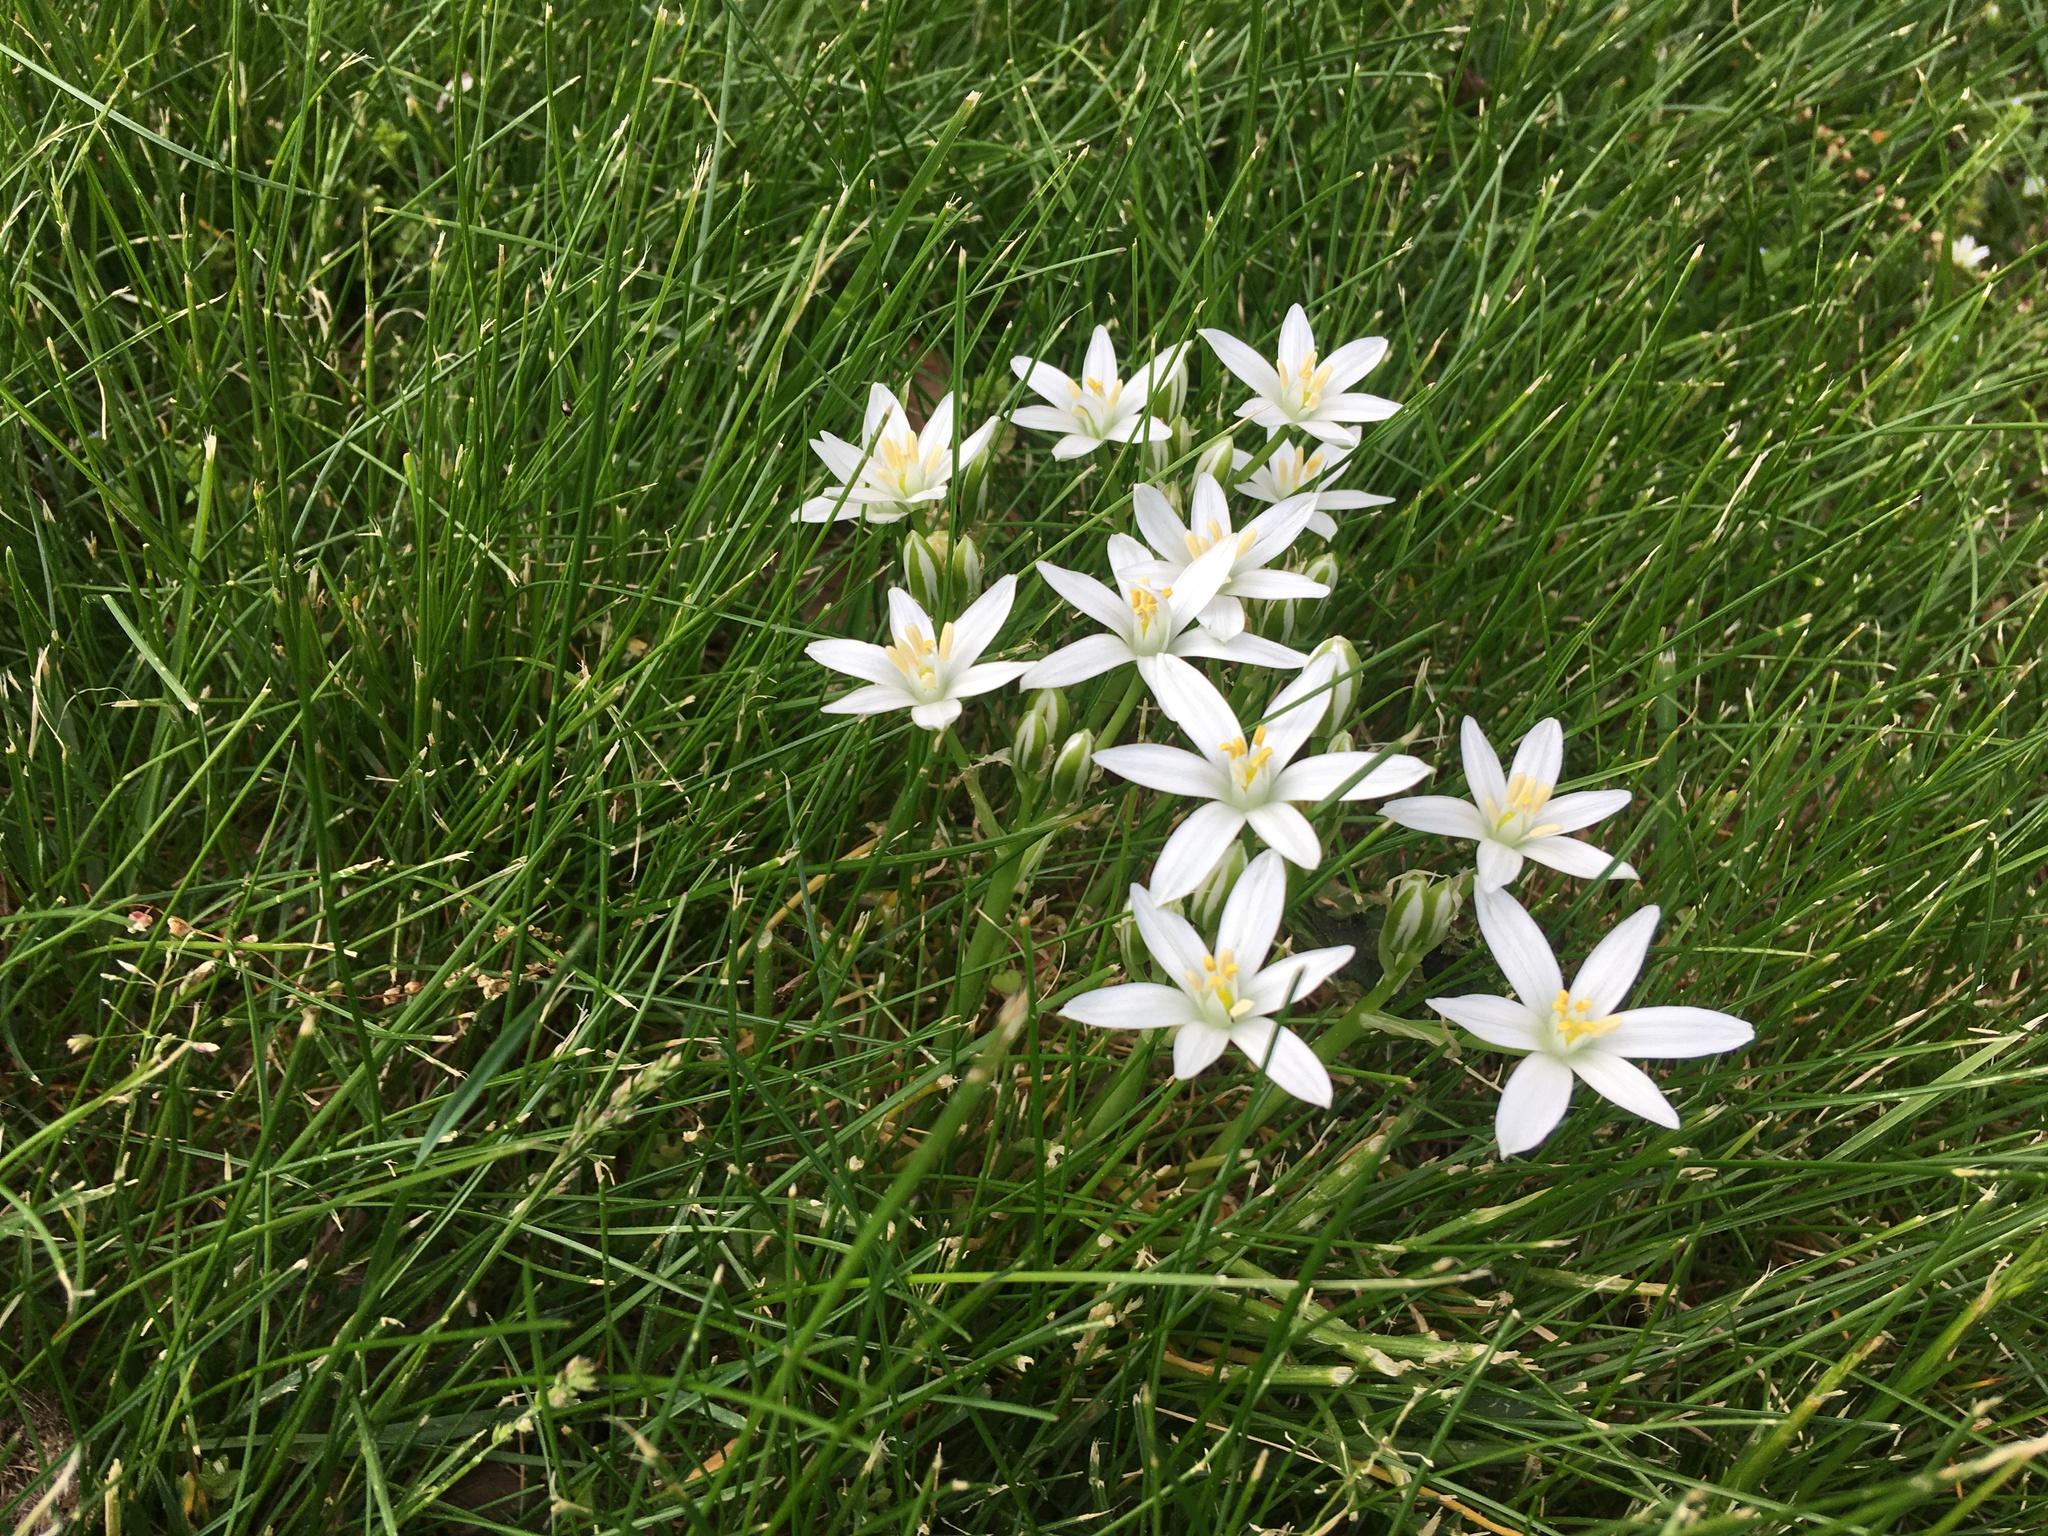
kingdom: Plantae
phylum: Tracheophyta
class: Liliopsida
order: Asparagales
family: Asparagaceae
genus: Ornithogalum
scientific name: Ornithogalum umbellatum
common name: Garden star-of-bethlehem
